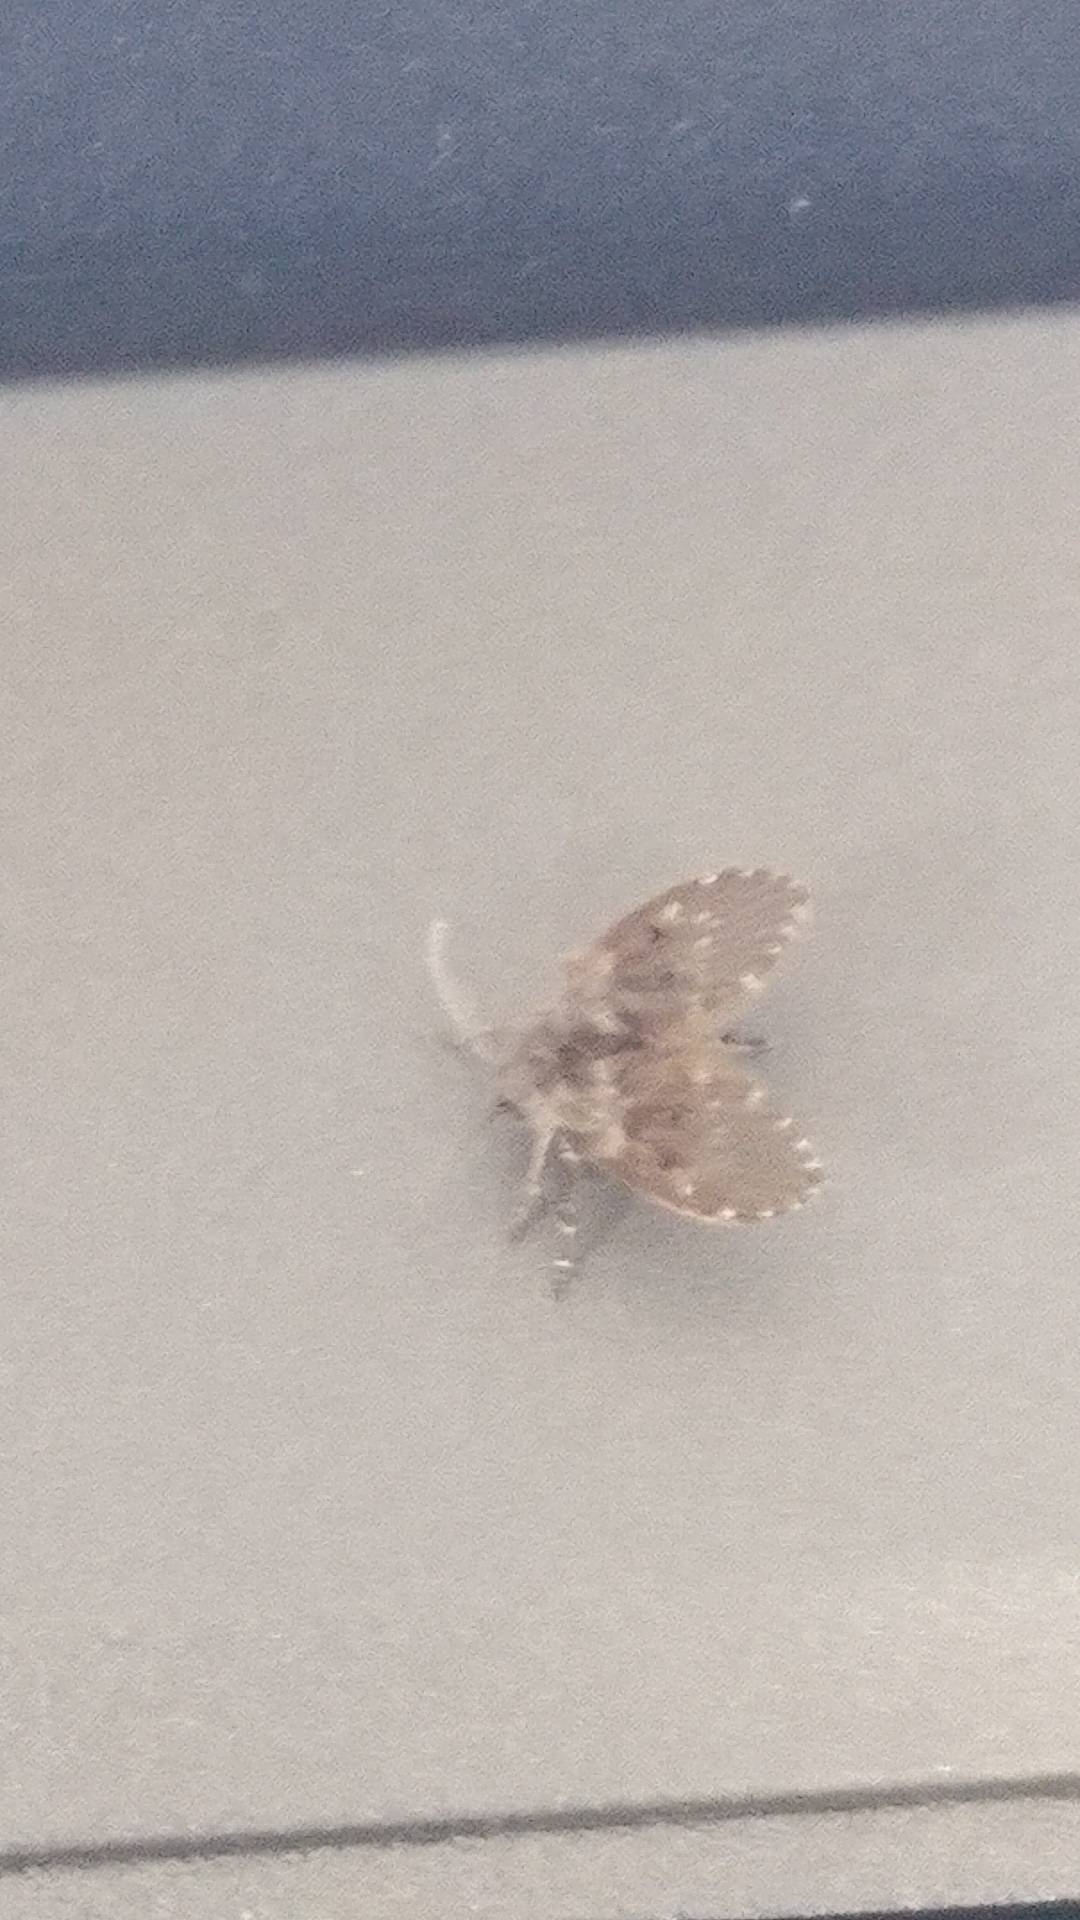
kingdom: Animalia
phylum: Arthropoda
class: Insecta
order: Diptera
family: Psychodidae
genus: Clogmia
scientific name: Clogmia albipunctatus
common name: White-spotted moth fly
